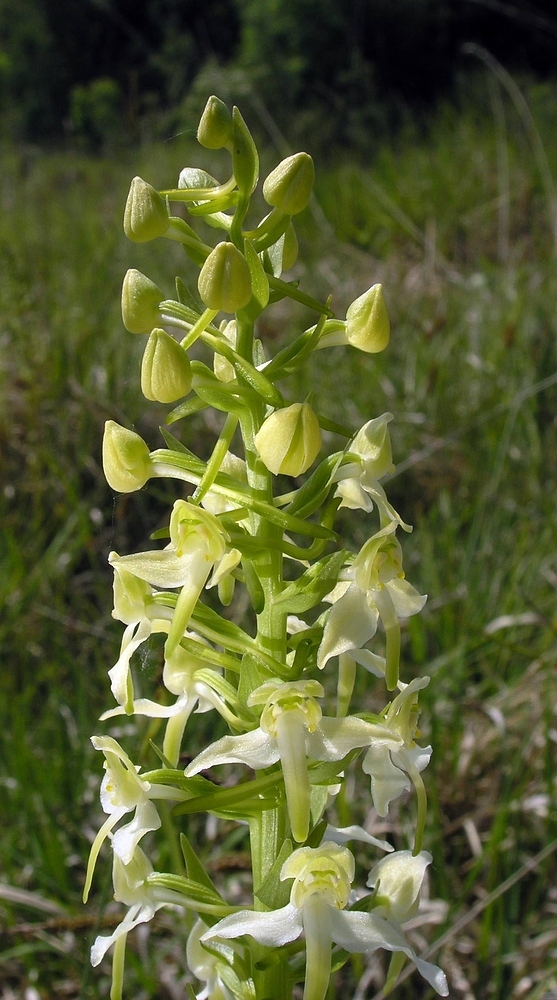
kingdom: Plantae
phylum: Tracheophyta
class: Liliopsida
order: Asparagales
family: Orchidaceae
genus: Platanthera
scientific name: Platanthera chlorantha
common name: Greater butterfly-orchid
